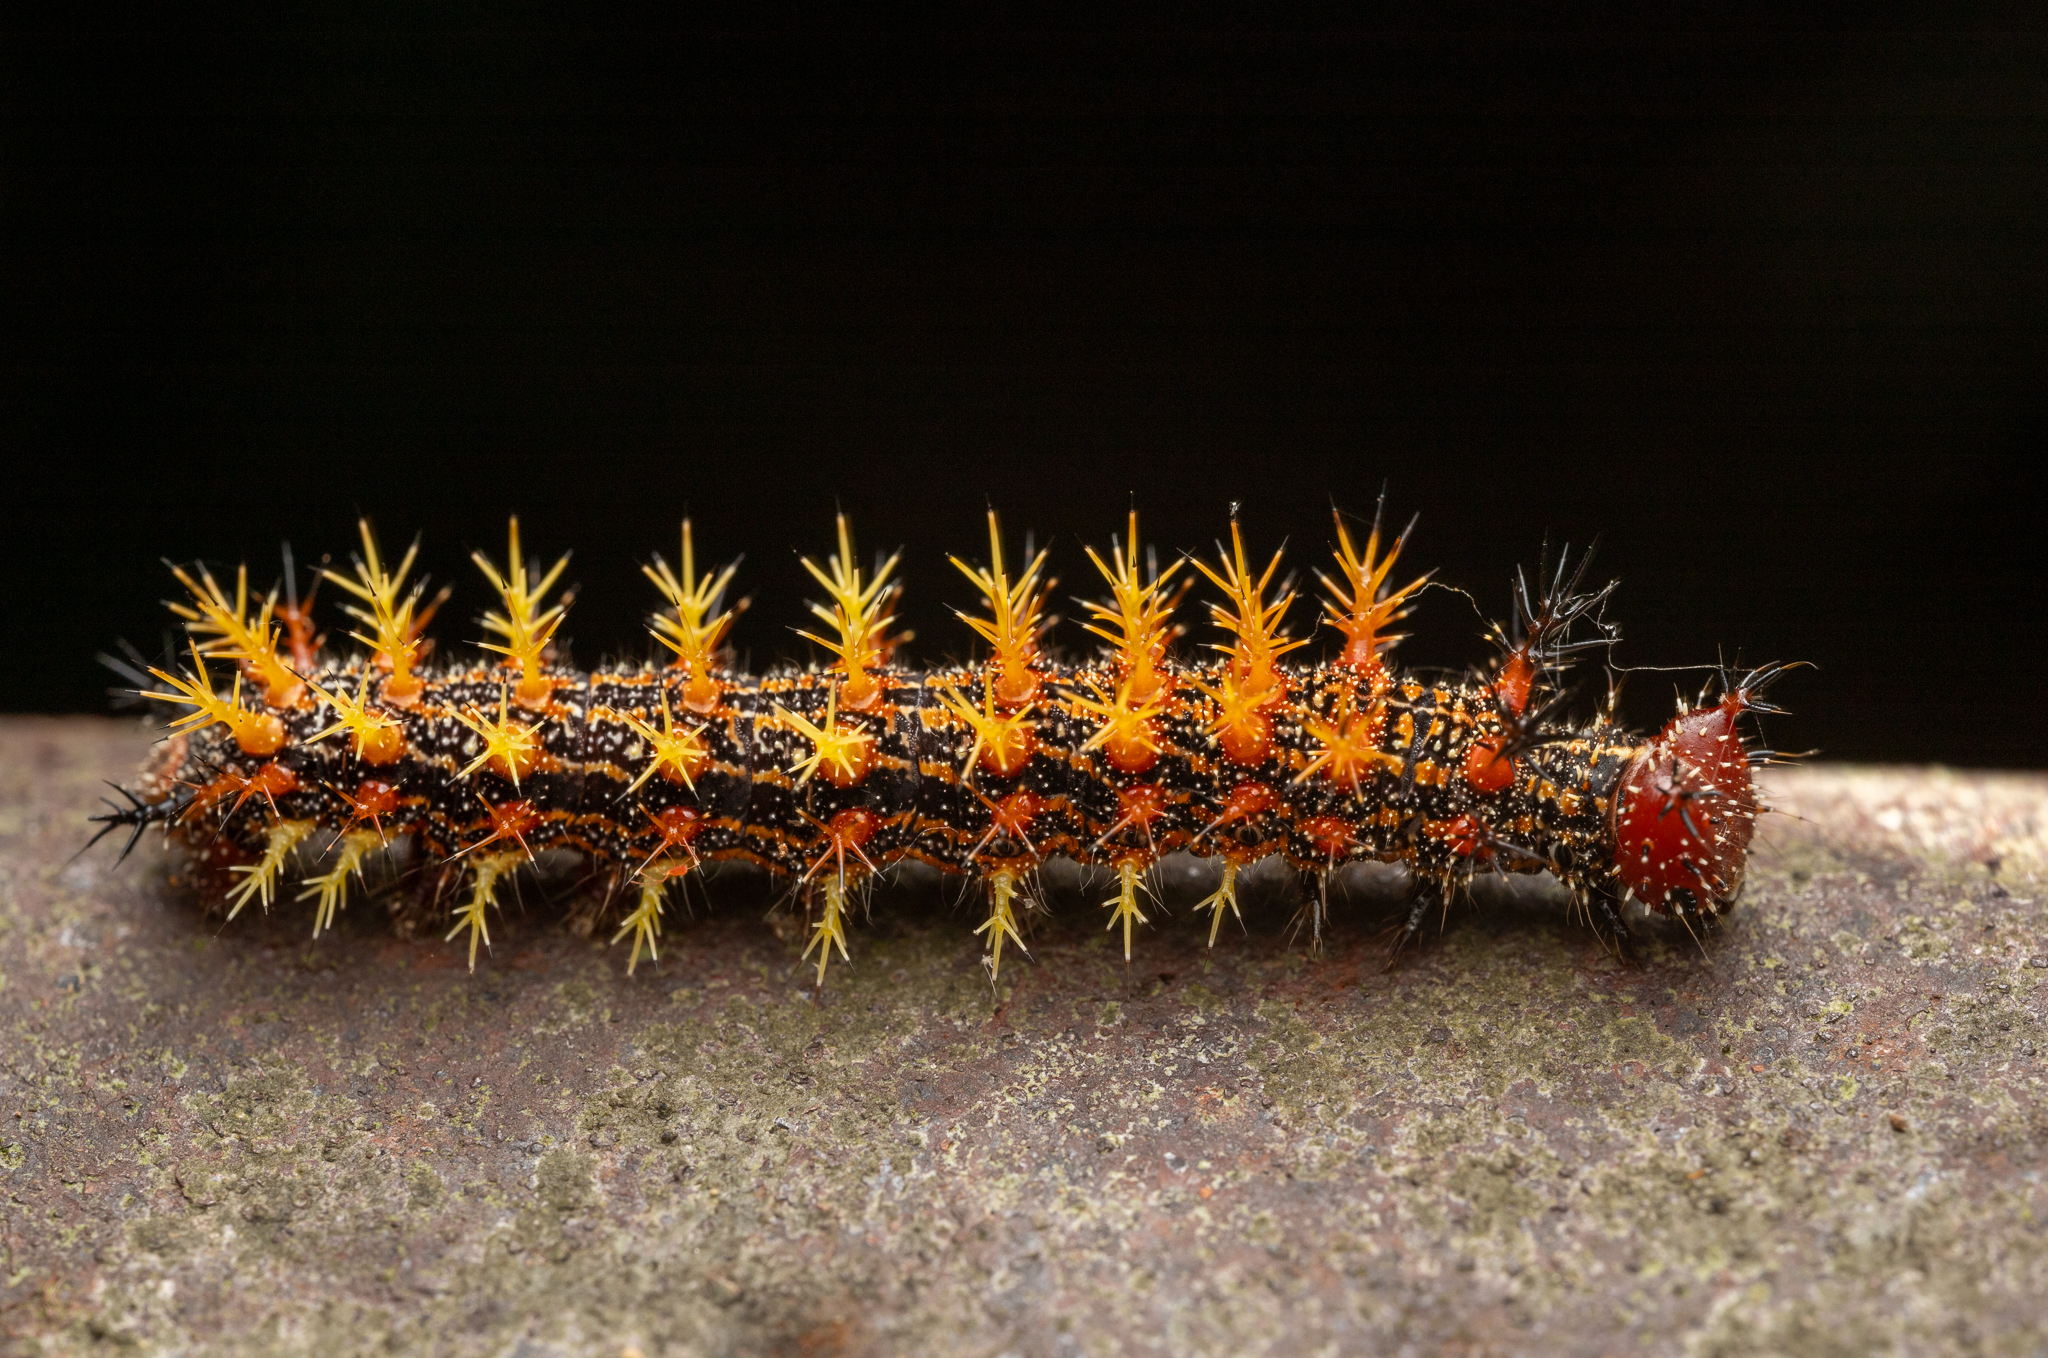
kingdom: Animalia
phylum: Arthropoda
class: Insecta
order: Lepidoptera
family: Nymphalidae
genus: Polygonia
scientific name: Polygonia interrogationis
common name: Question mark
